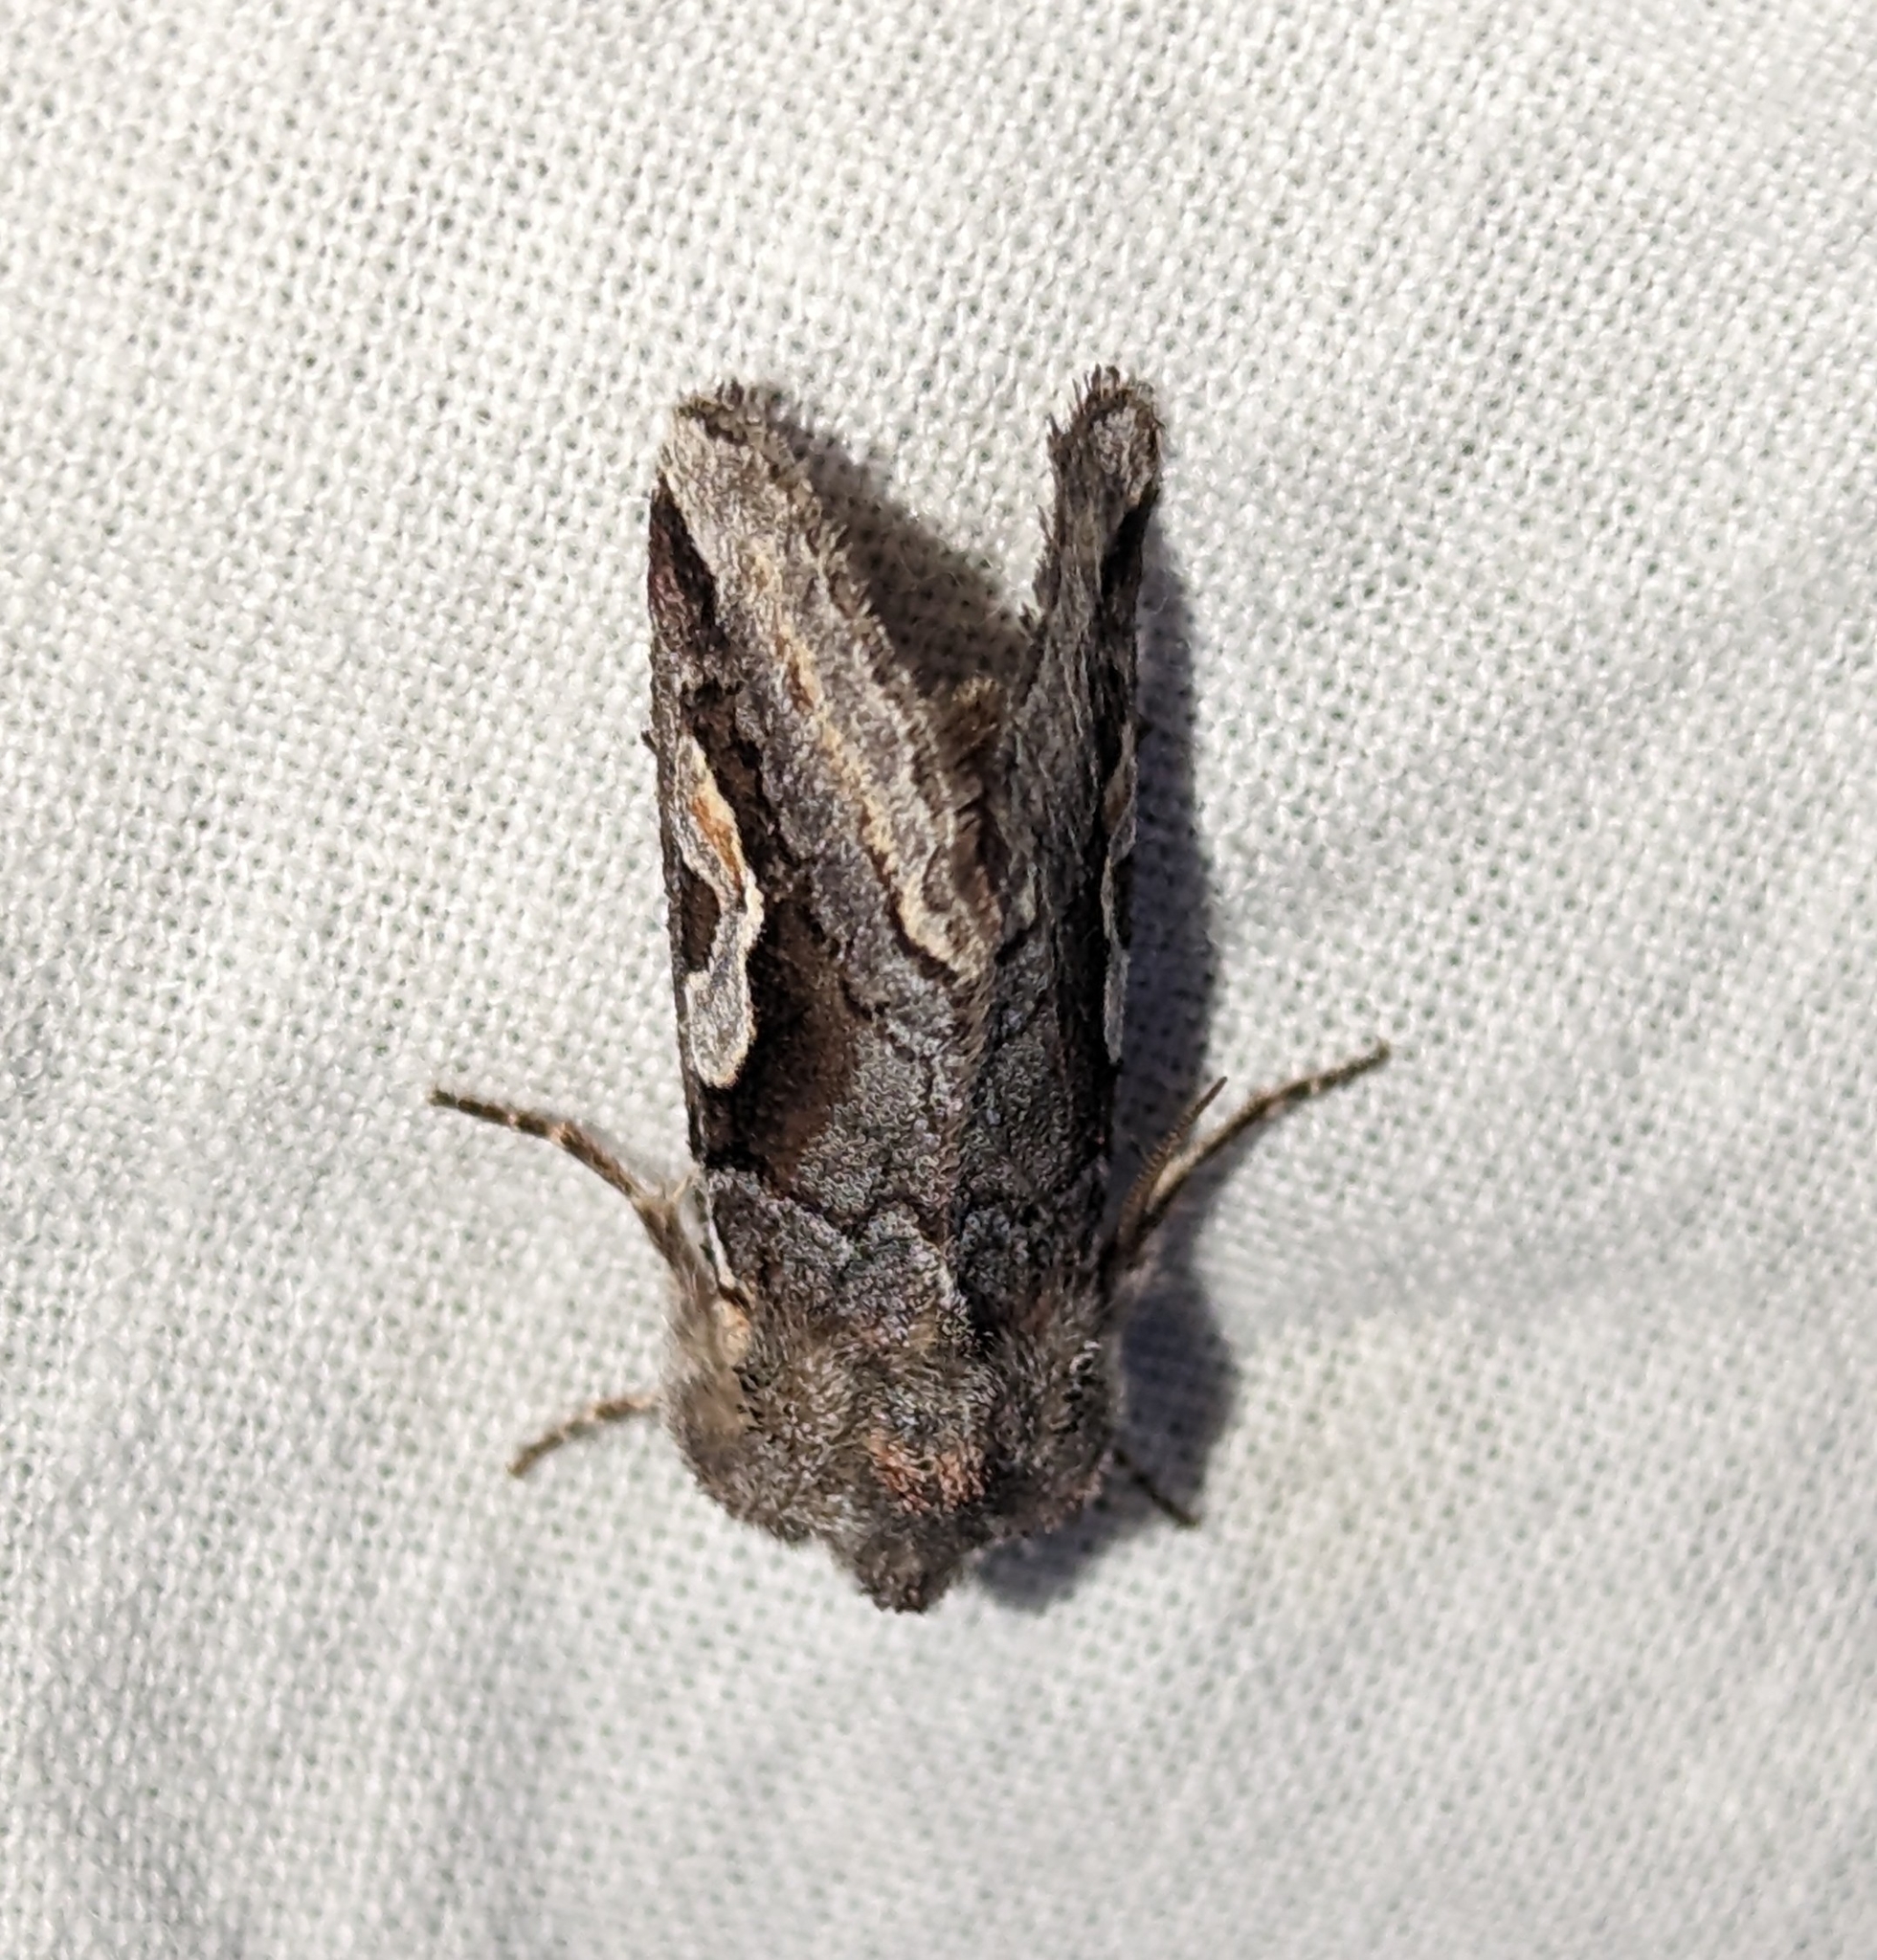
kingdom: Animalia
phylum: Arthropoda
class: Insecta
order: Lepidoptera
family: Noctuidae
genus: Stretchia
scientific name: Stretchia muricina
